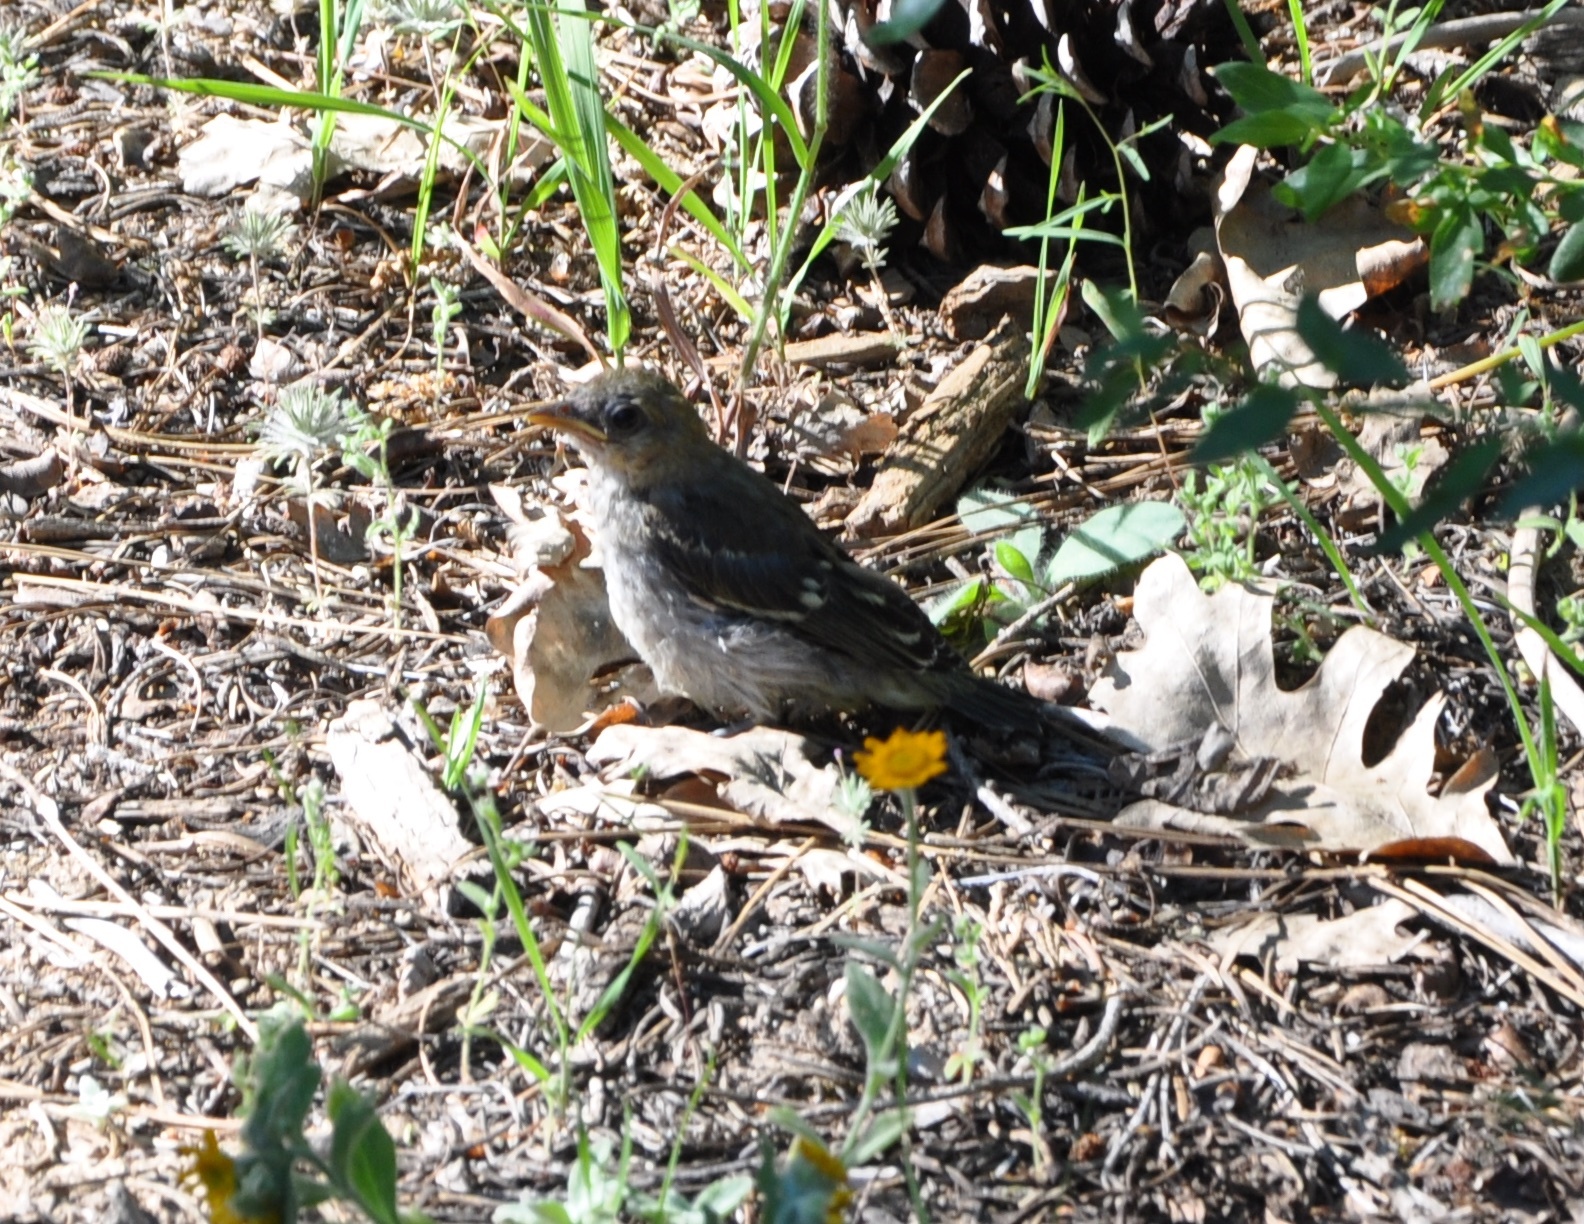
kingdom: Animalia
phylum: Chordata
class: Aves
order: Passeriformes
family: Icteridae
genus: Icterus
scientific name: Icterus bullockii
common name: Bullock's oriole
